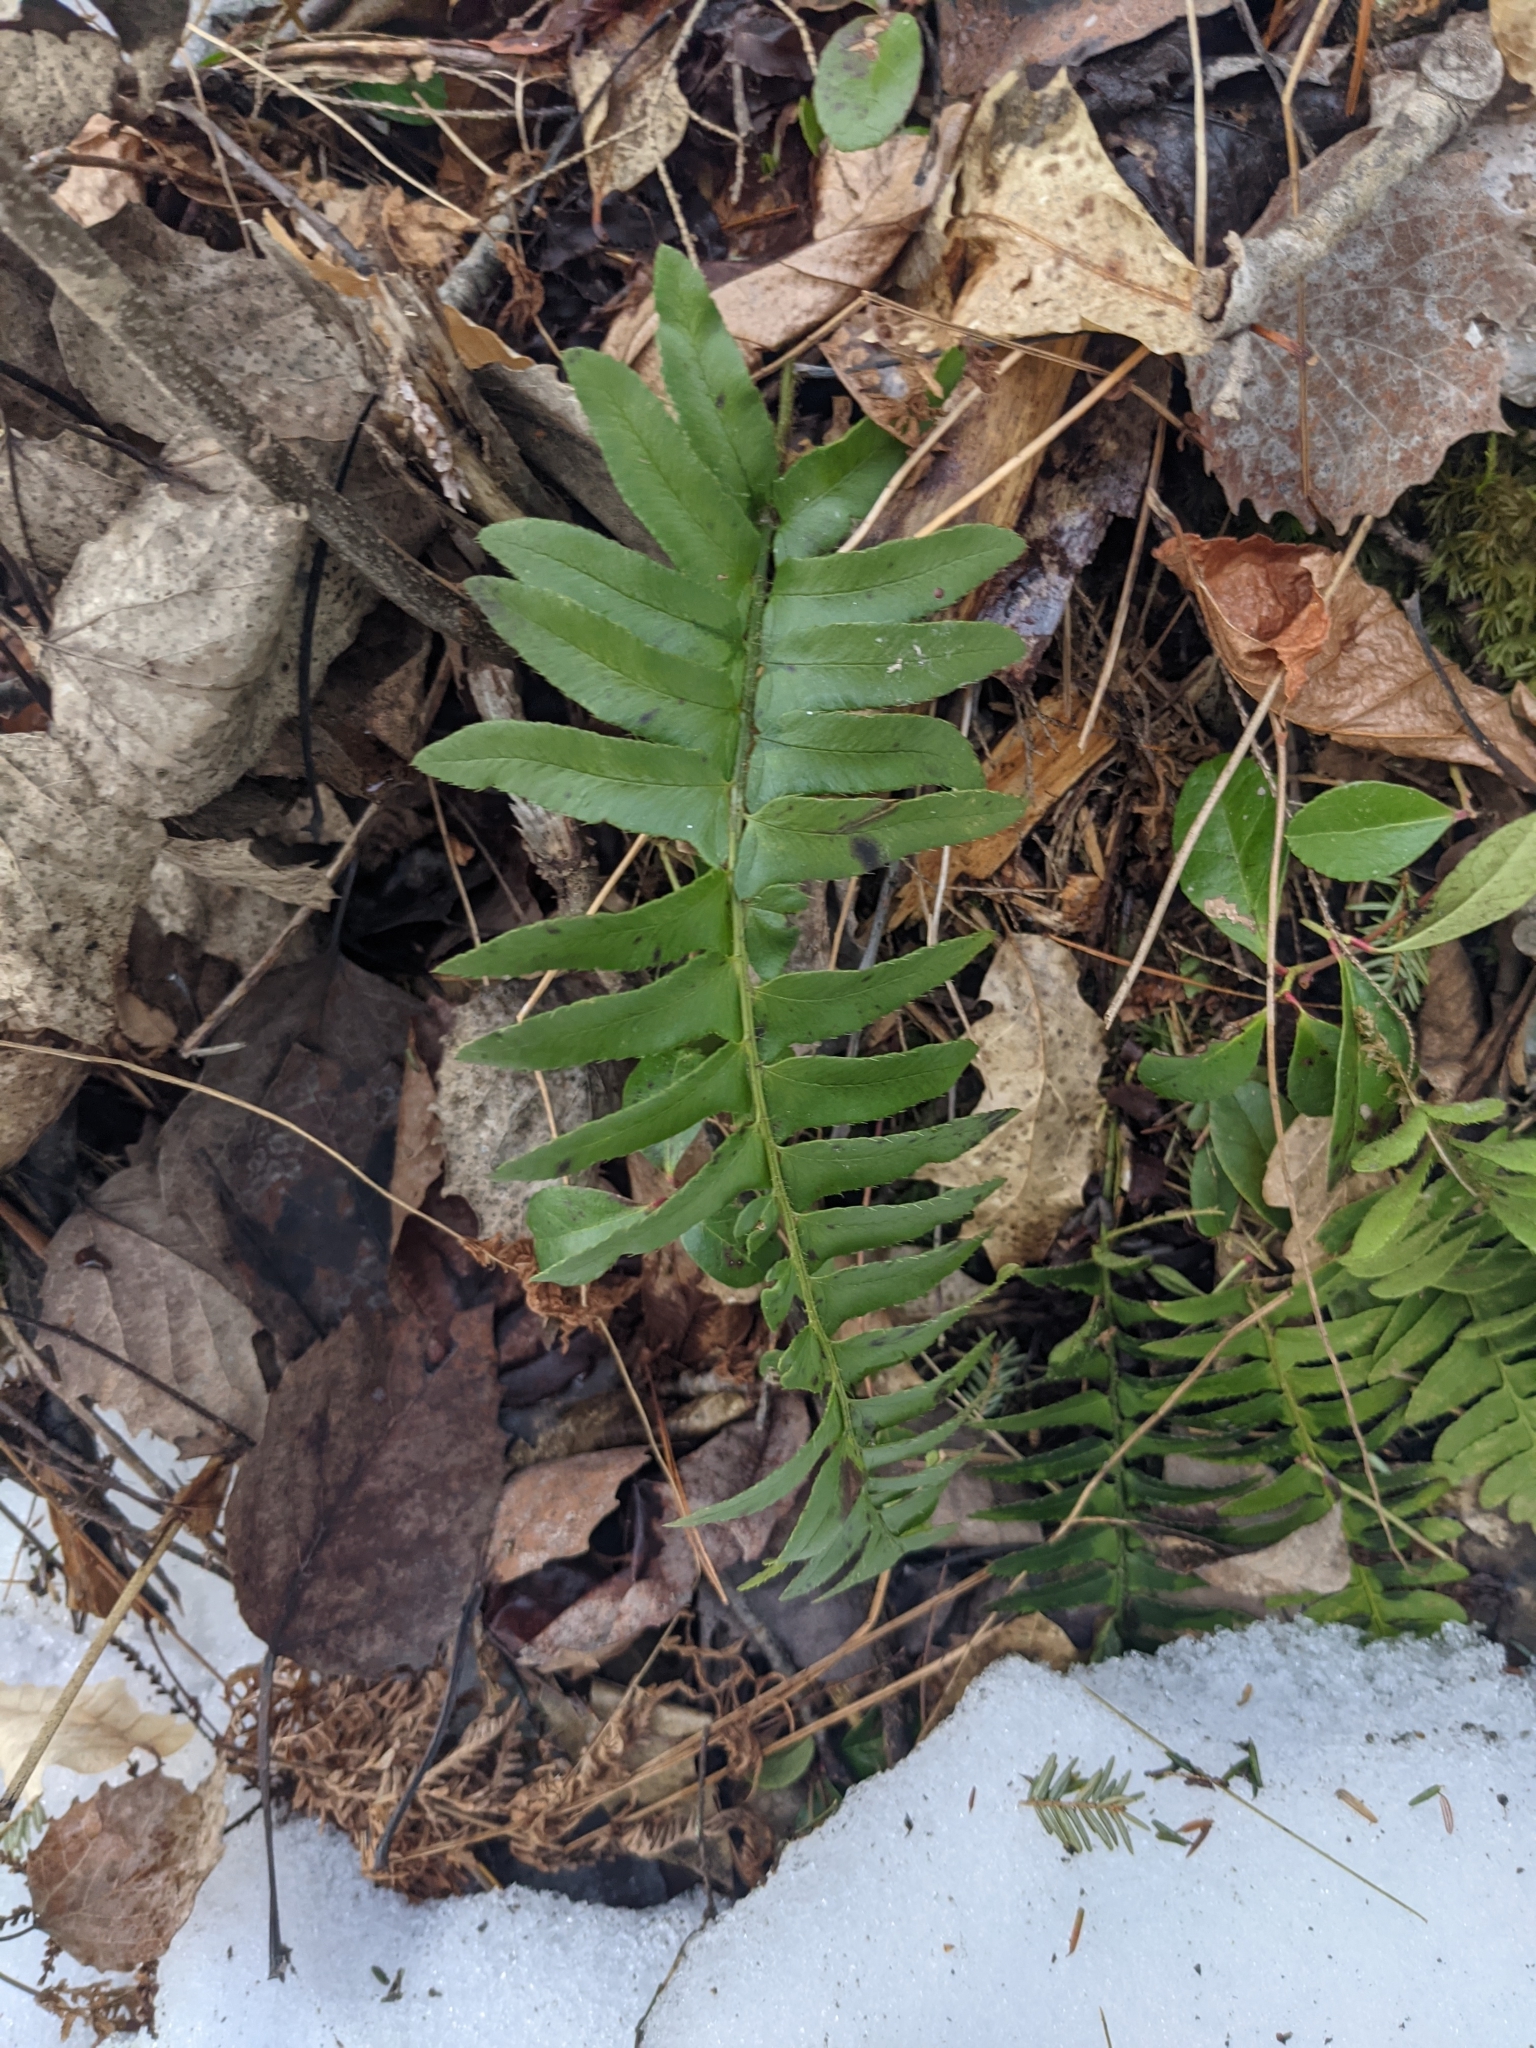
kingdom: Plantae
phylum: Tracheophyta
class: Polypodiopsida
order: Polypodiales
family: Dryopteridaceae
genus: Polystichum
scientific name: Polystichum acrostichoides
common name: Christmas fern
